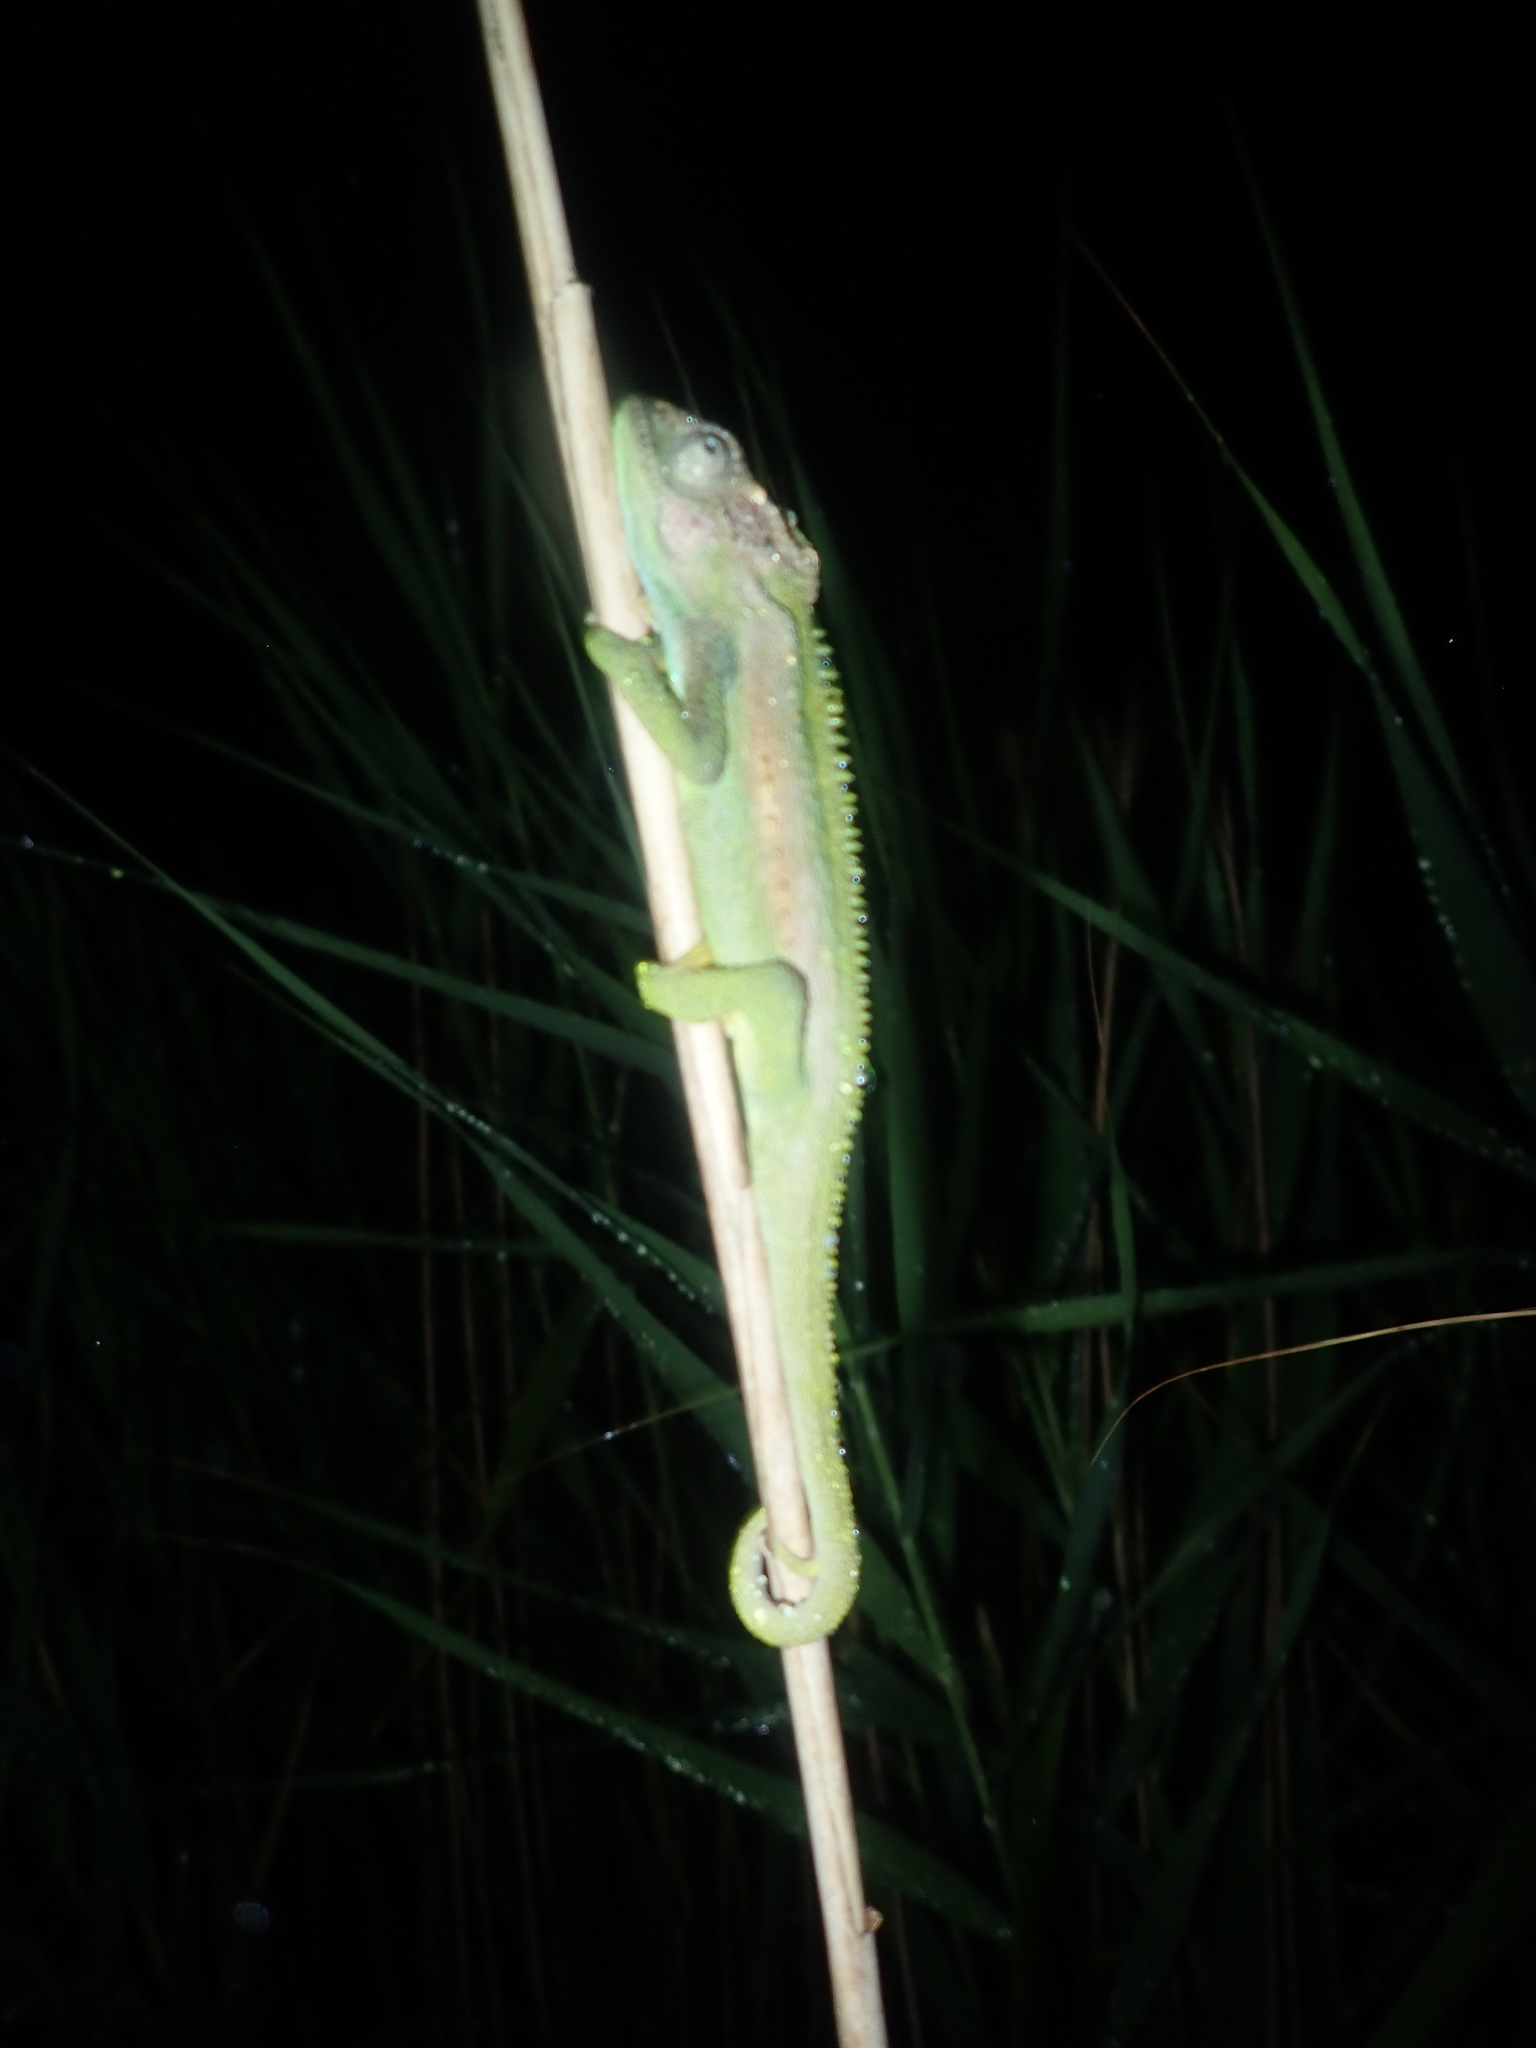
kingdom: Animalia
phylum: Chordata
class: Squamata
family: Chamaeleonidae
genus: Bradypodion
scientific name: Bradypodion pumilum
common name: Cape dwarf chameleon
